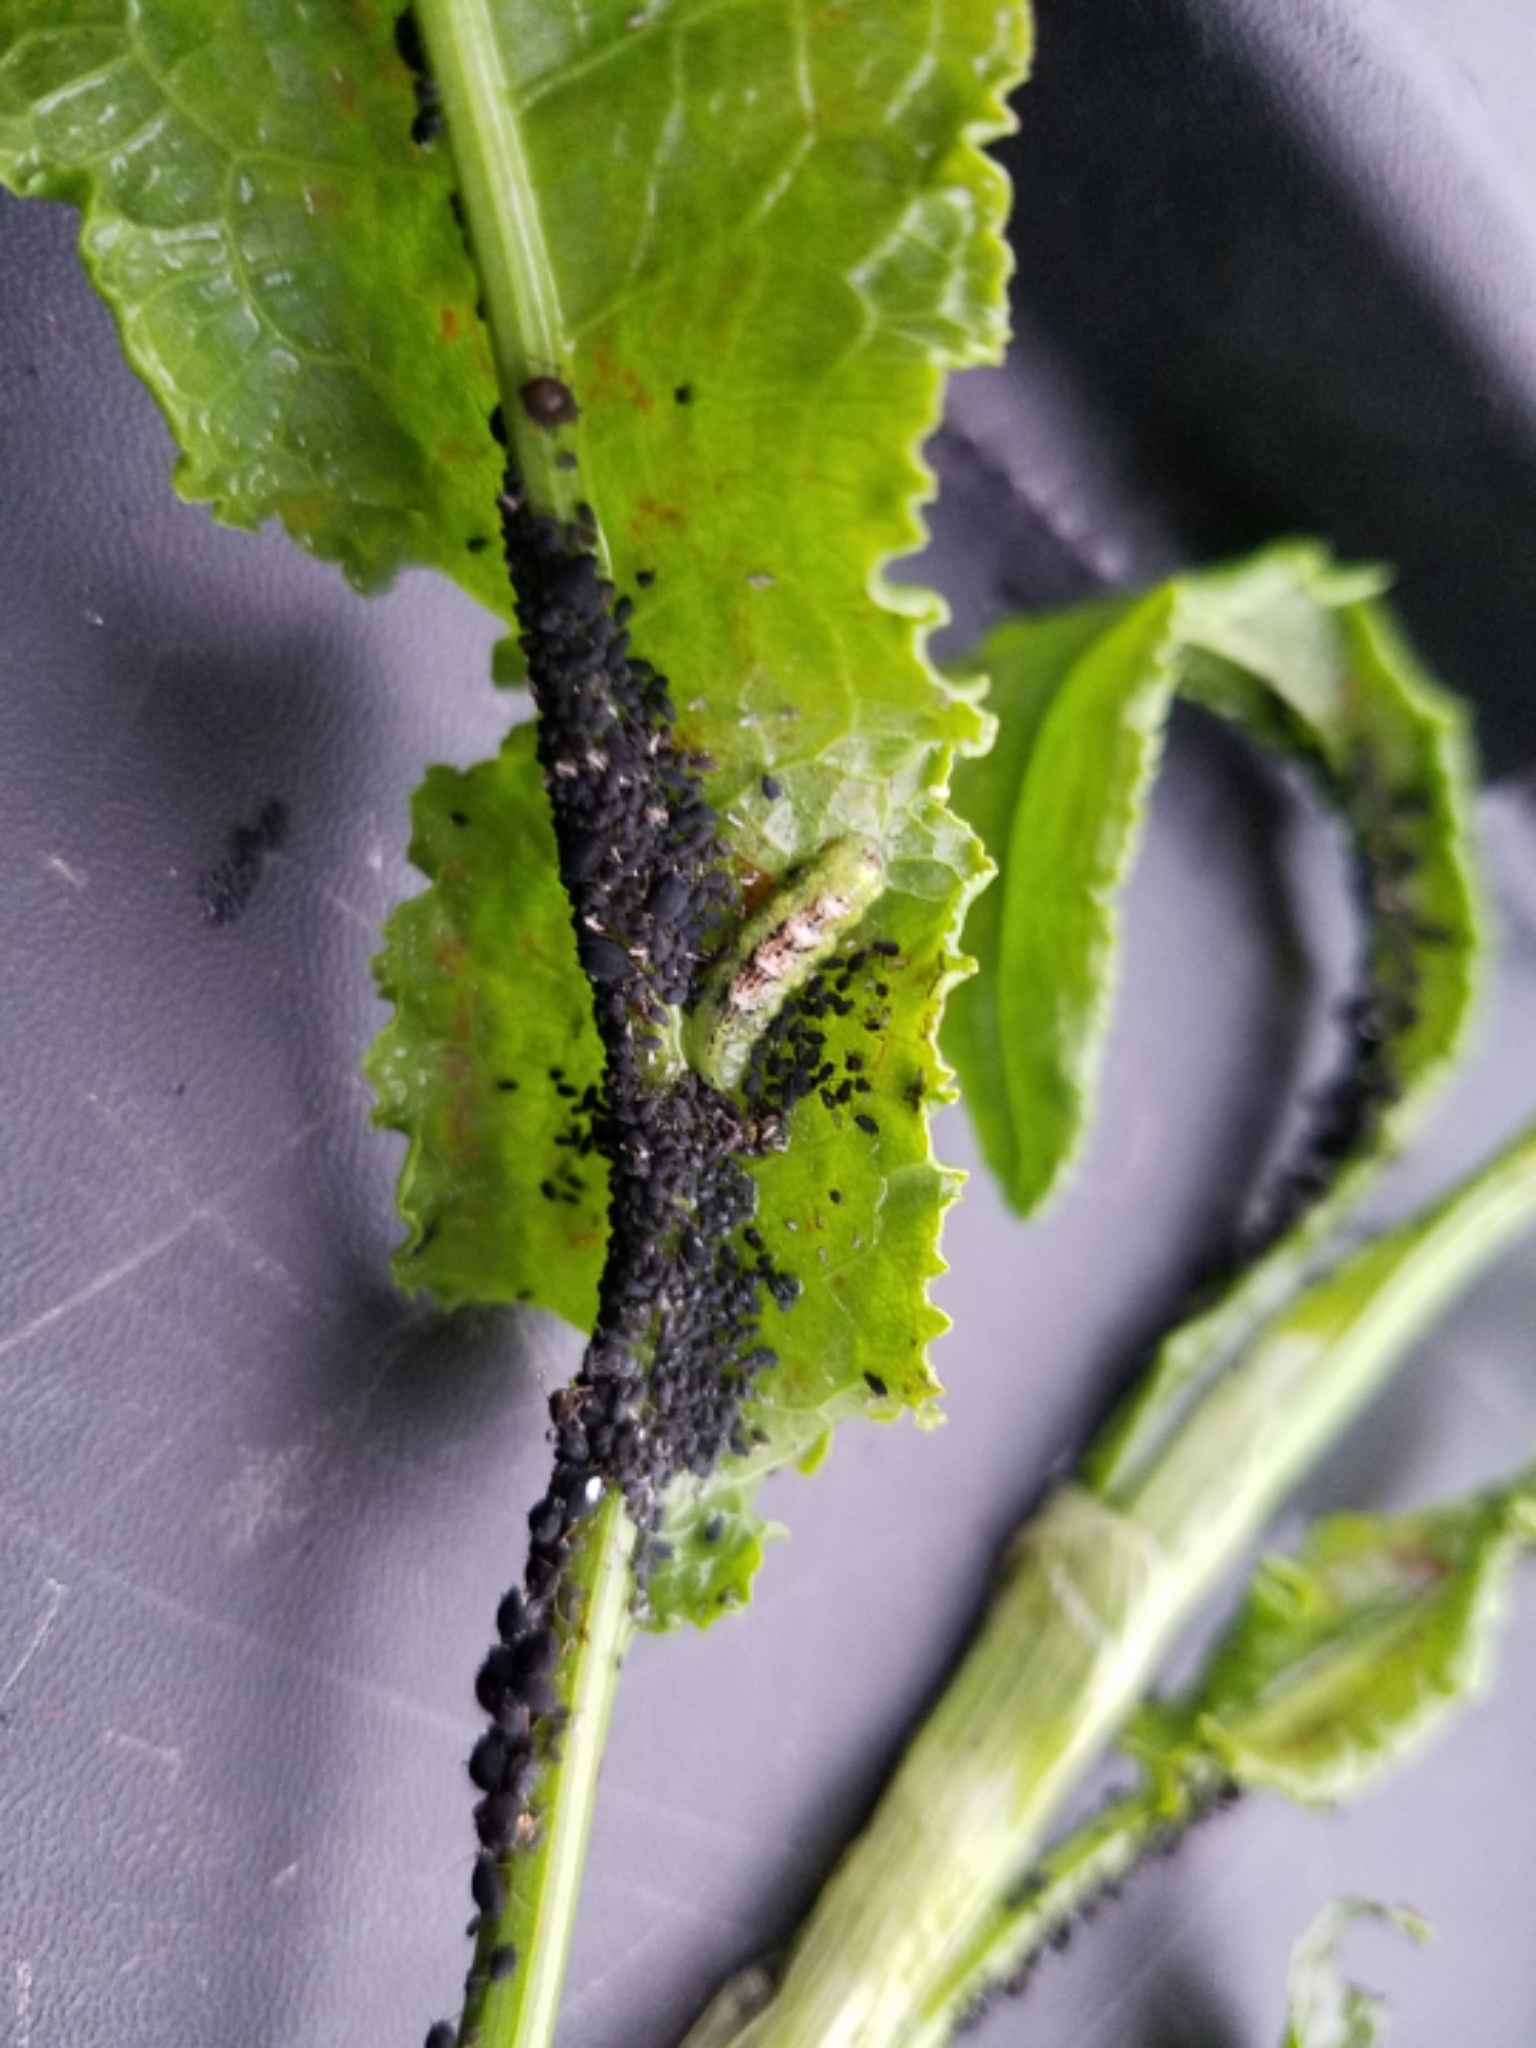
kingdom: Animalia
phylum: Arthropoda
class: Insecta
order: Diptera
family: Syrphidae
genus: Eupeodes
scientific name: Eupeodes pomus
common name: Short-tailed aphideater
